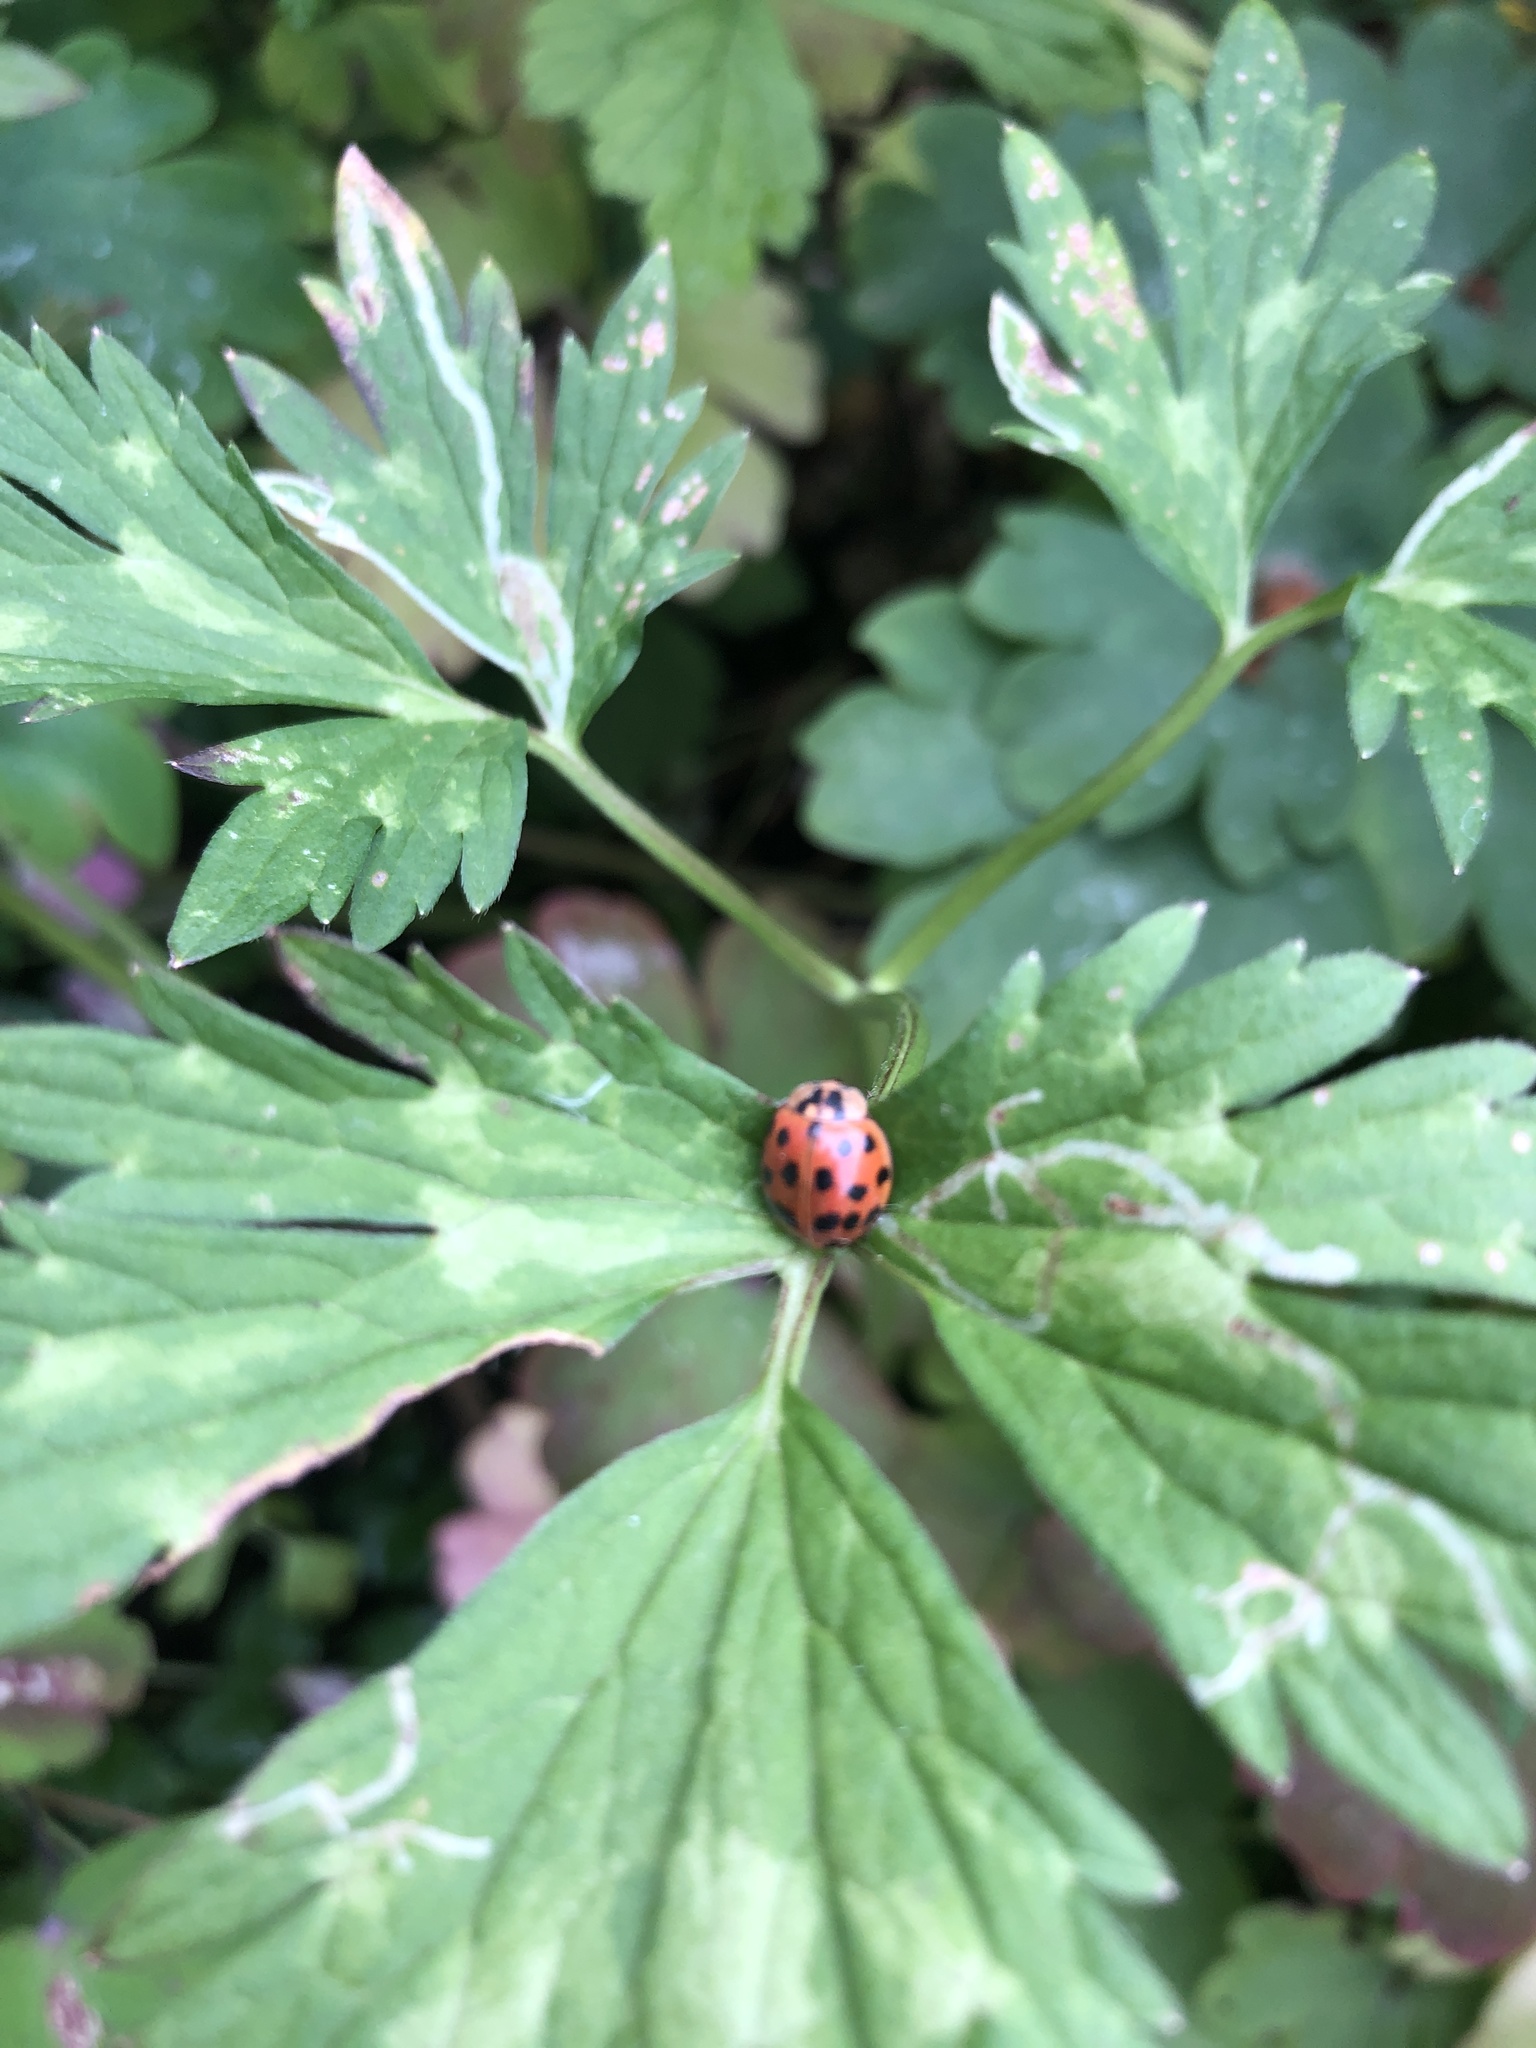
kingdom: Animalia
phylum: Arthropoda
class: Insecta
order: Coleoptera
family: Coccinellidae
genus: Harmonia
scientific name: Harmonia axyridis
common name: Harlequin ladybird
